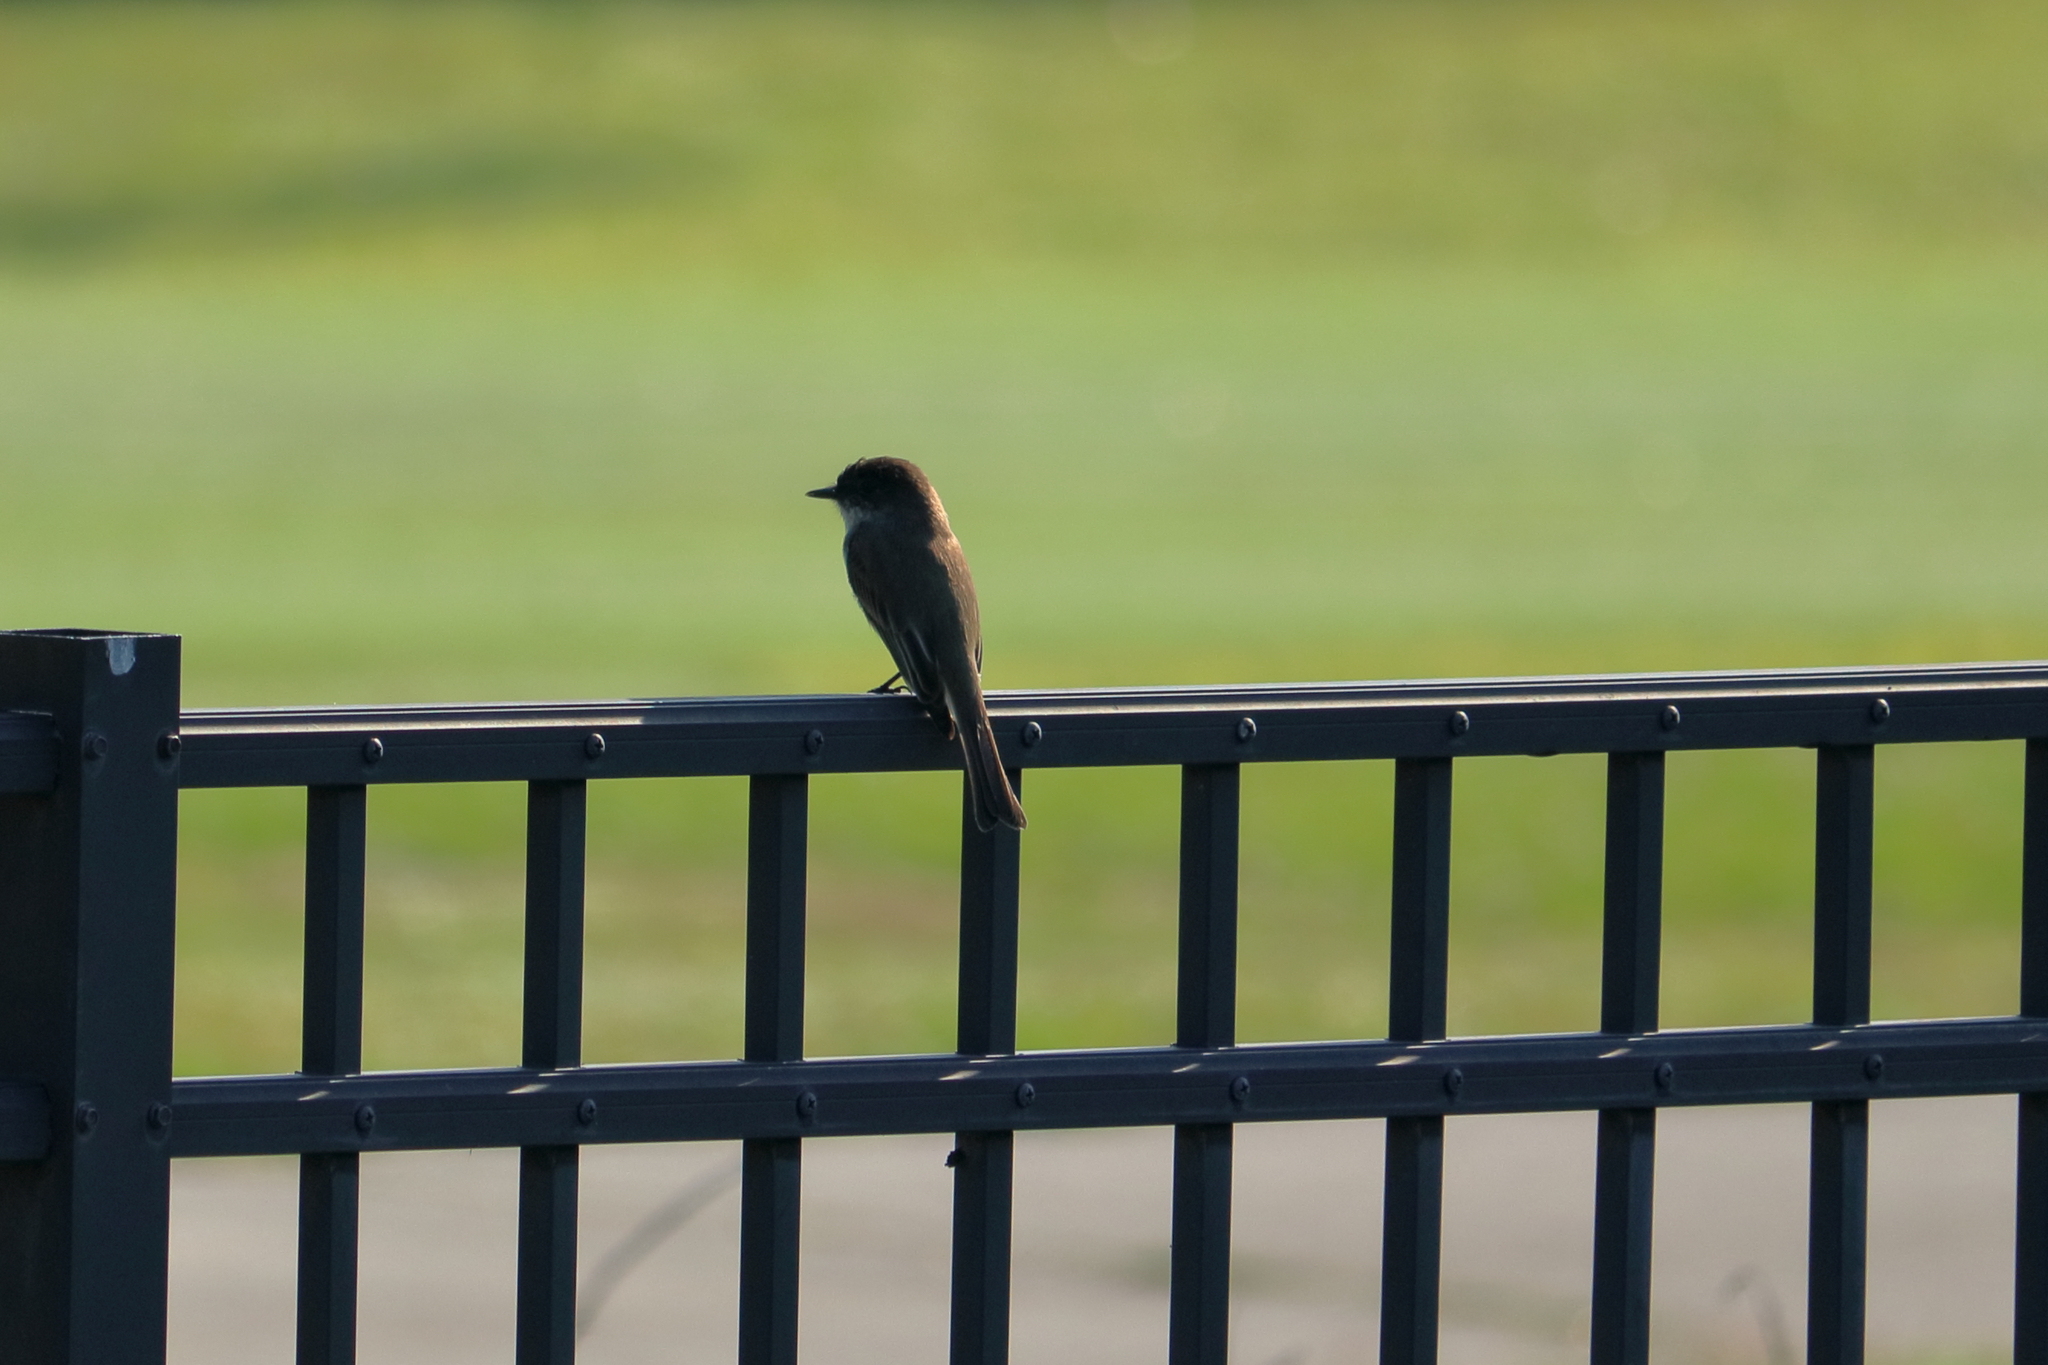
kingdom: Animalia
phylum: Chordata
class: Aves
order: Passeriformes
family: Tyrannidae
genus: Sayornis
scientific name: Sayornis phoebe
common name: Eastern phoebe
